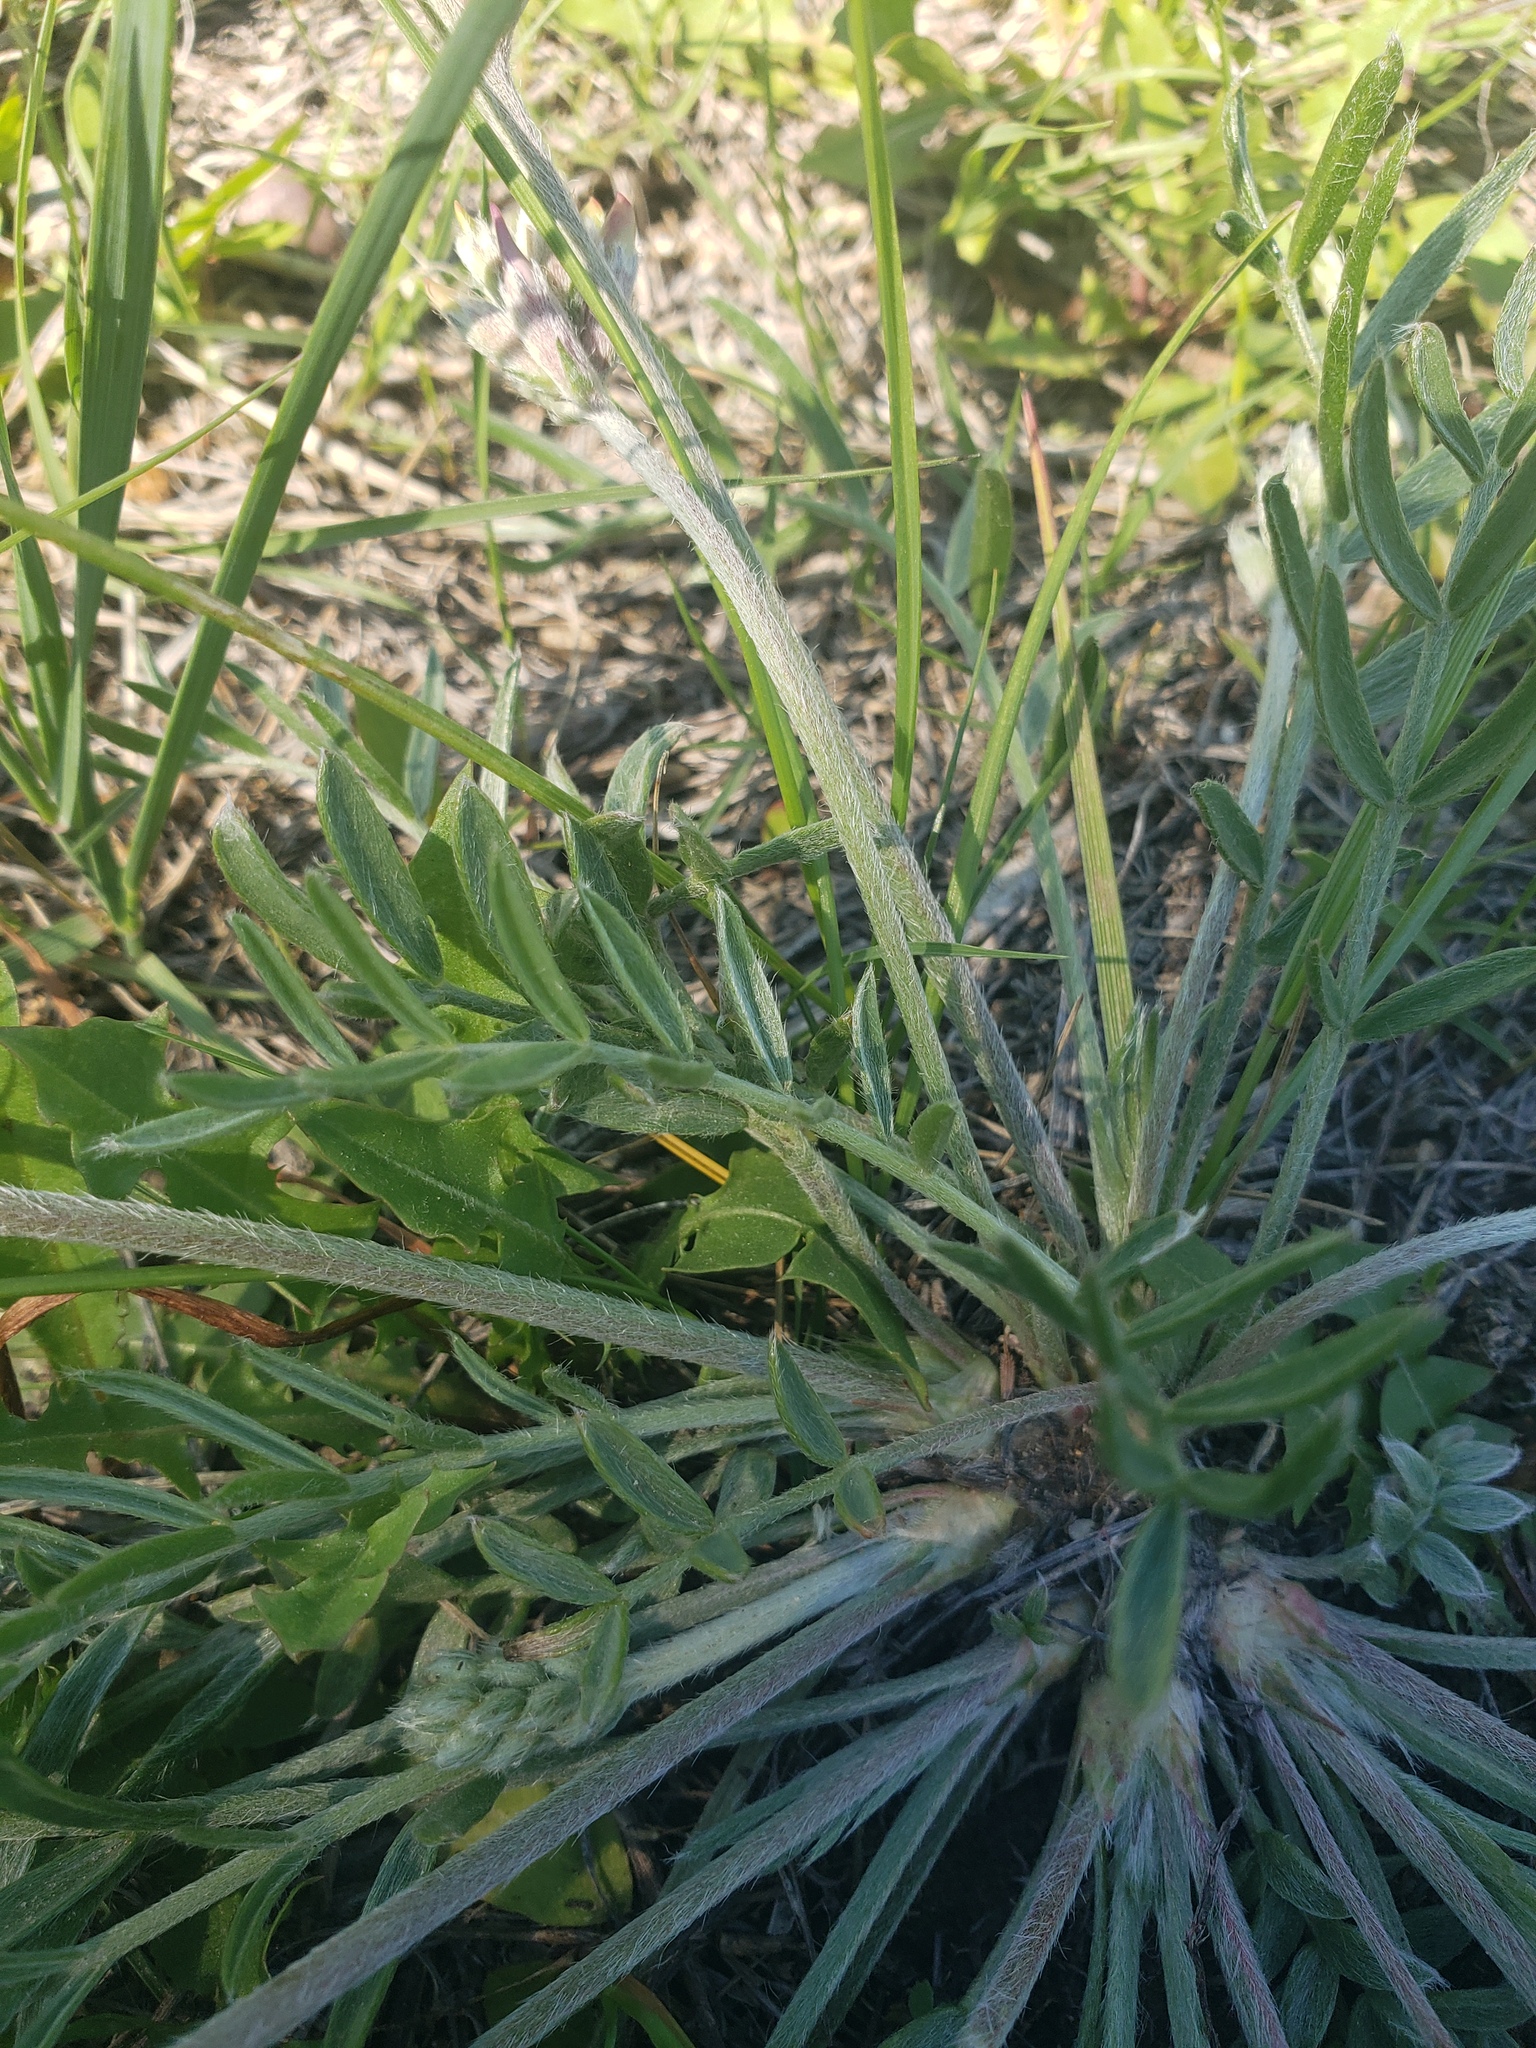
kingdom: Plantae
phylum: Tracheophyta
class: Magnoliopsida
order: Fabales
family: Fabaceae
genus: Oxytropis
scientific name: Oxytropis lambertii
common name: Purple locoweed
